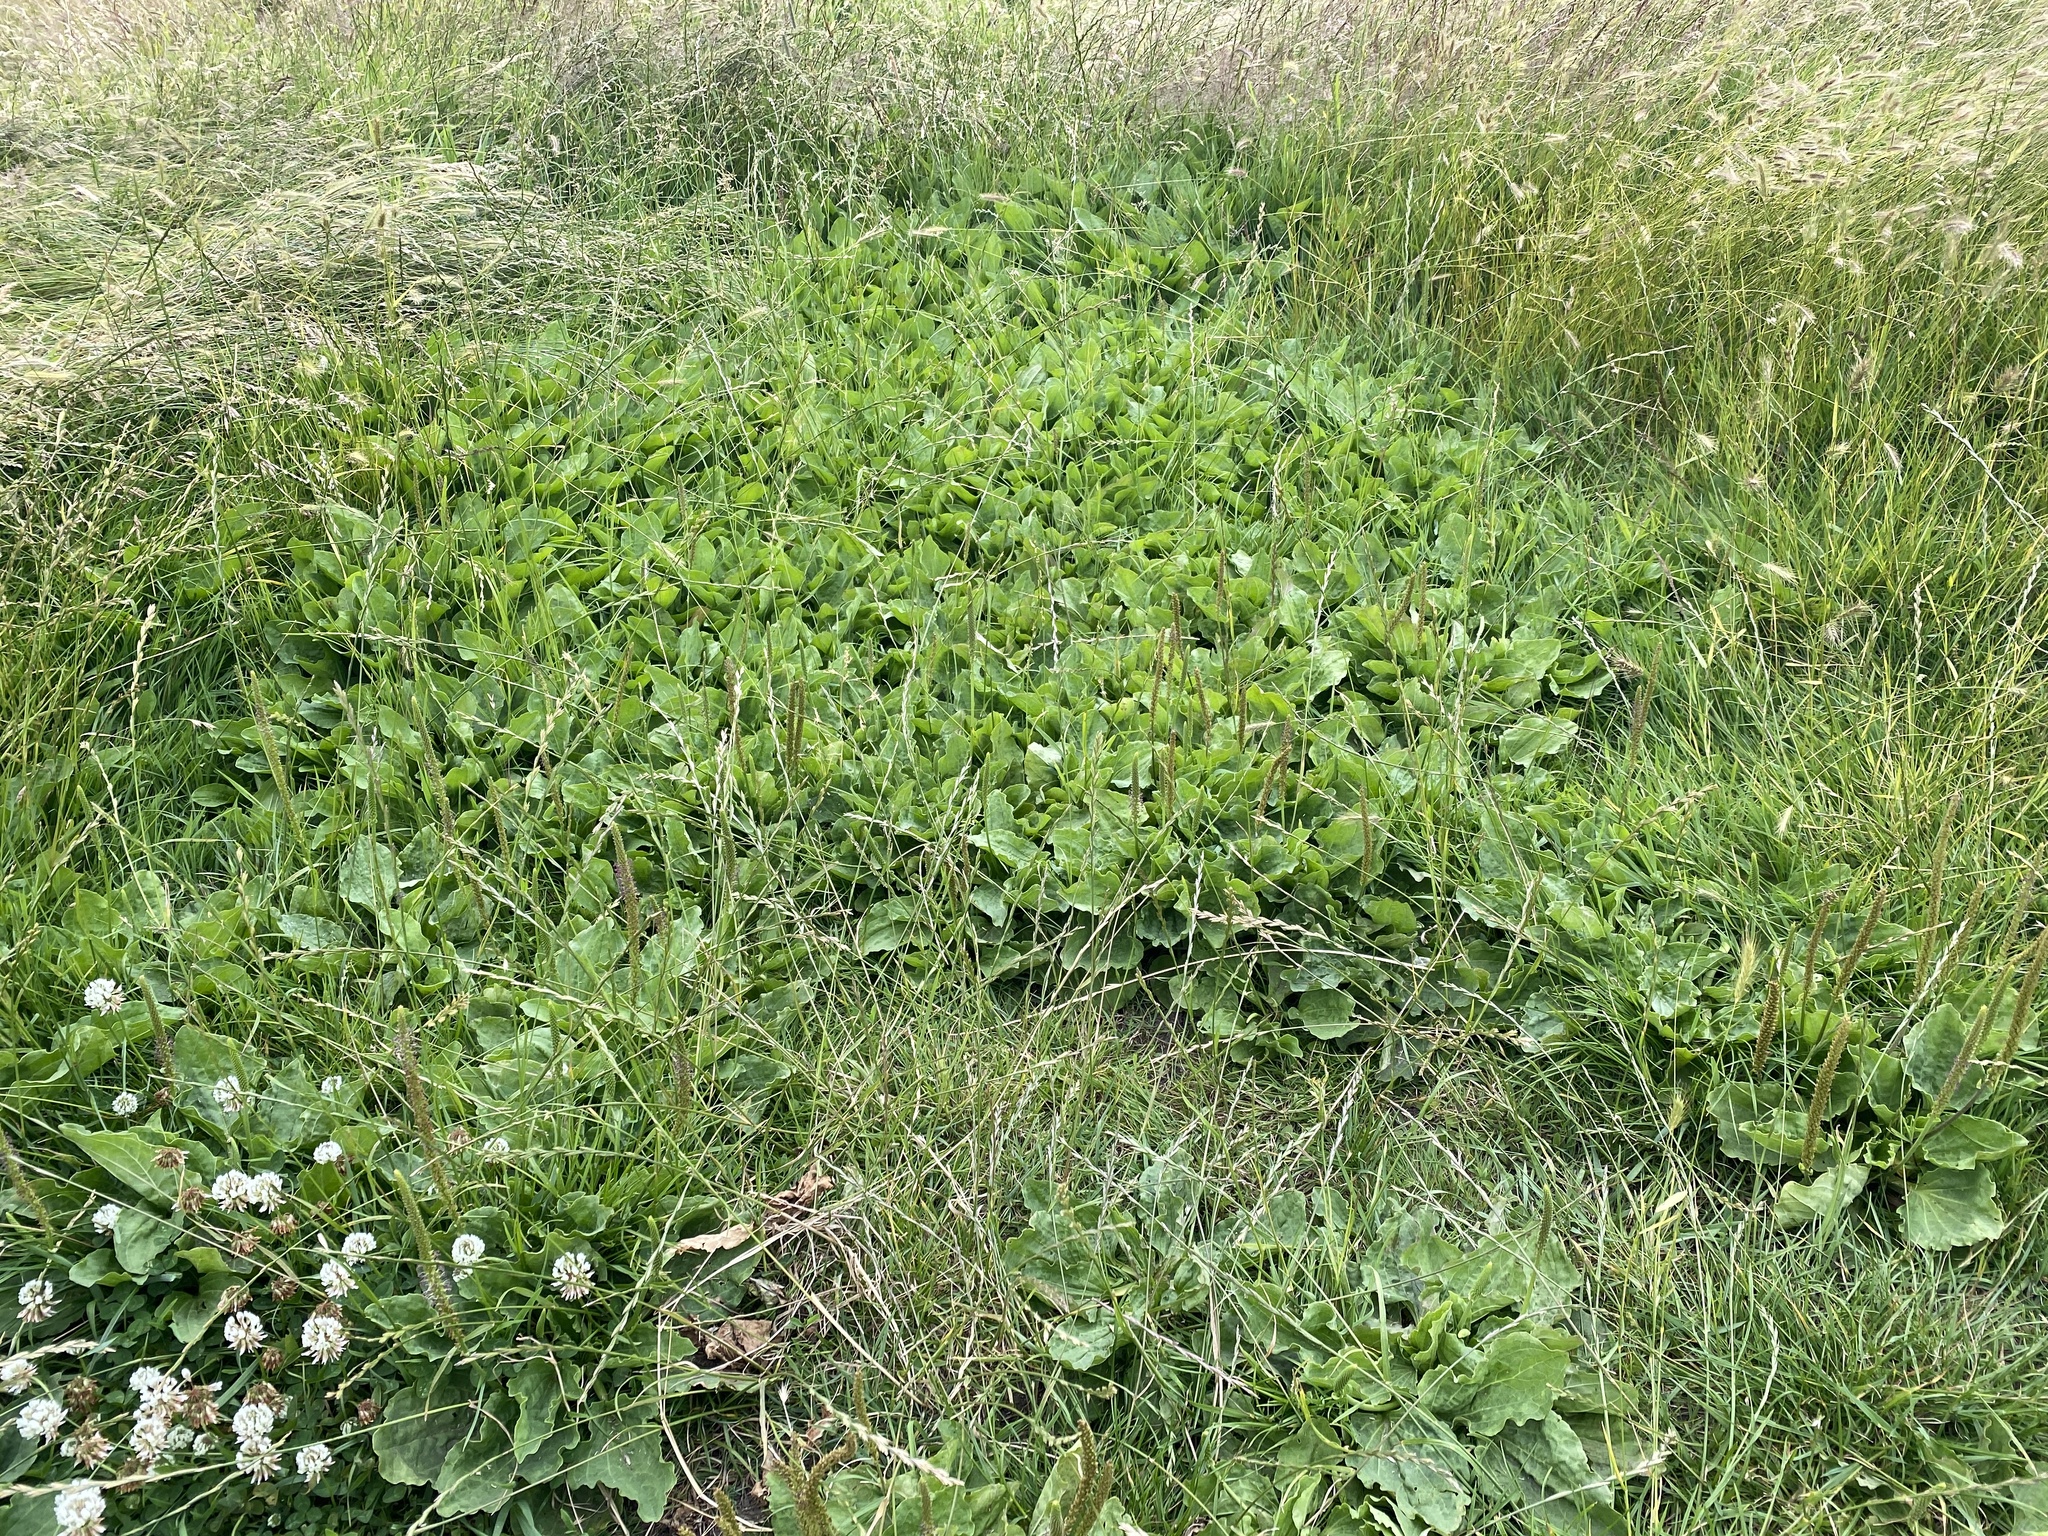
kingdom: Plantae
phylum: Tracheophyta
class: Magnoliopsida
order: Lamiales
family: Plantaginaceae
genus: Plantago
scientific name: Plantago major
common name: Common plantain
